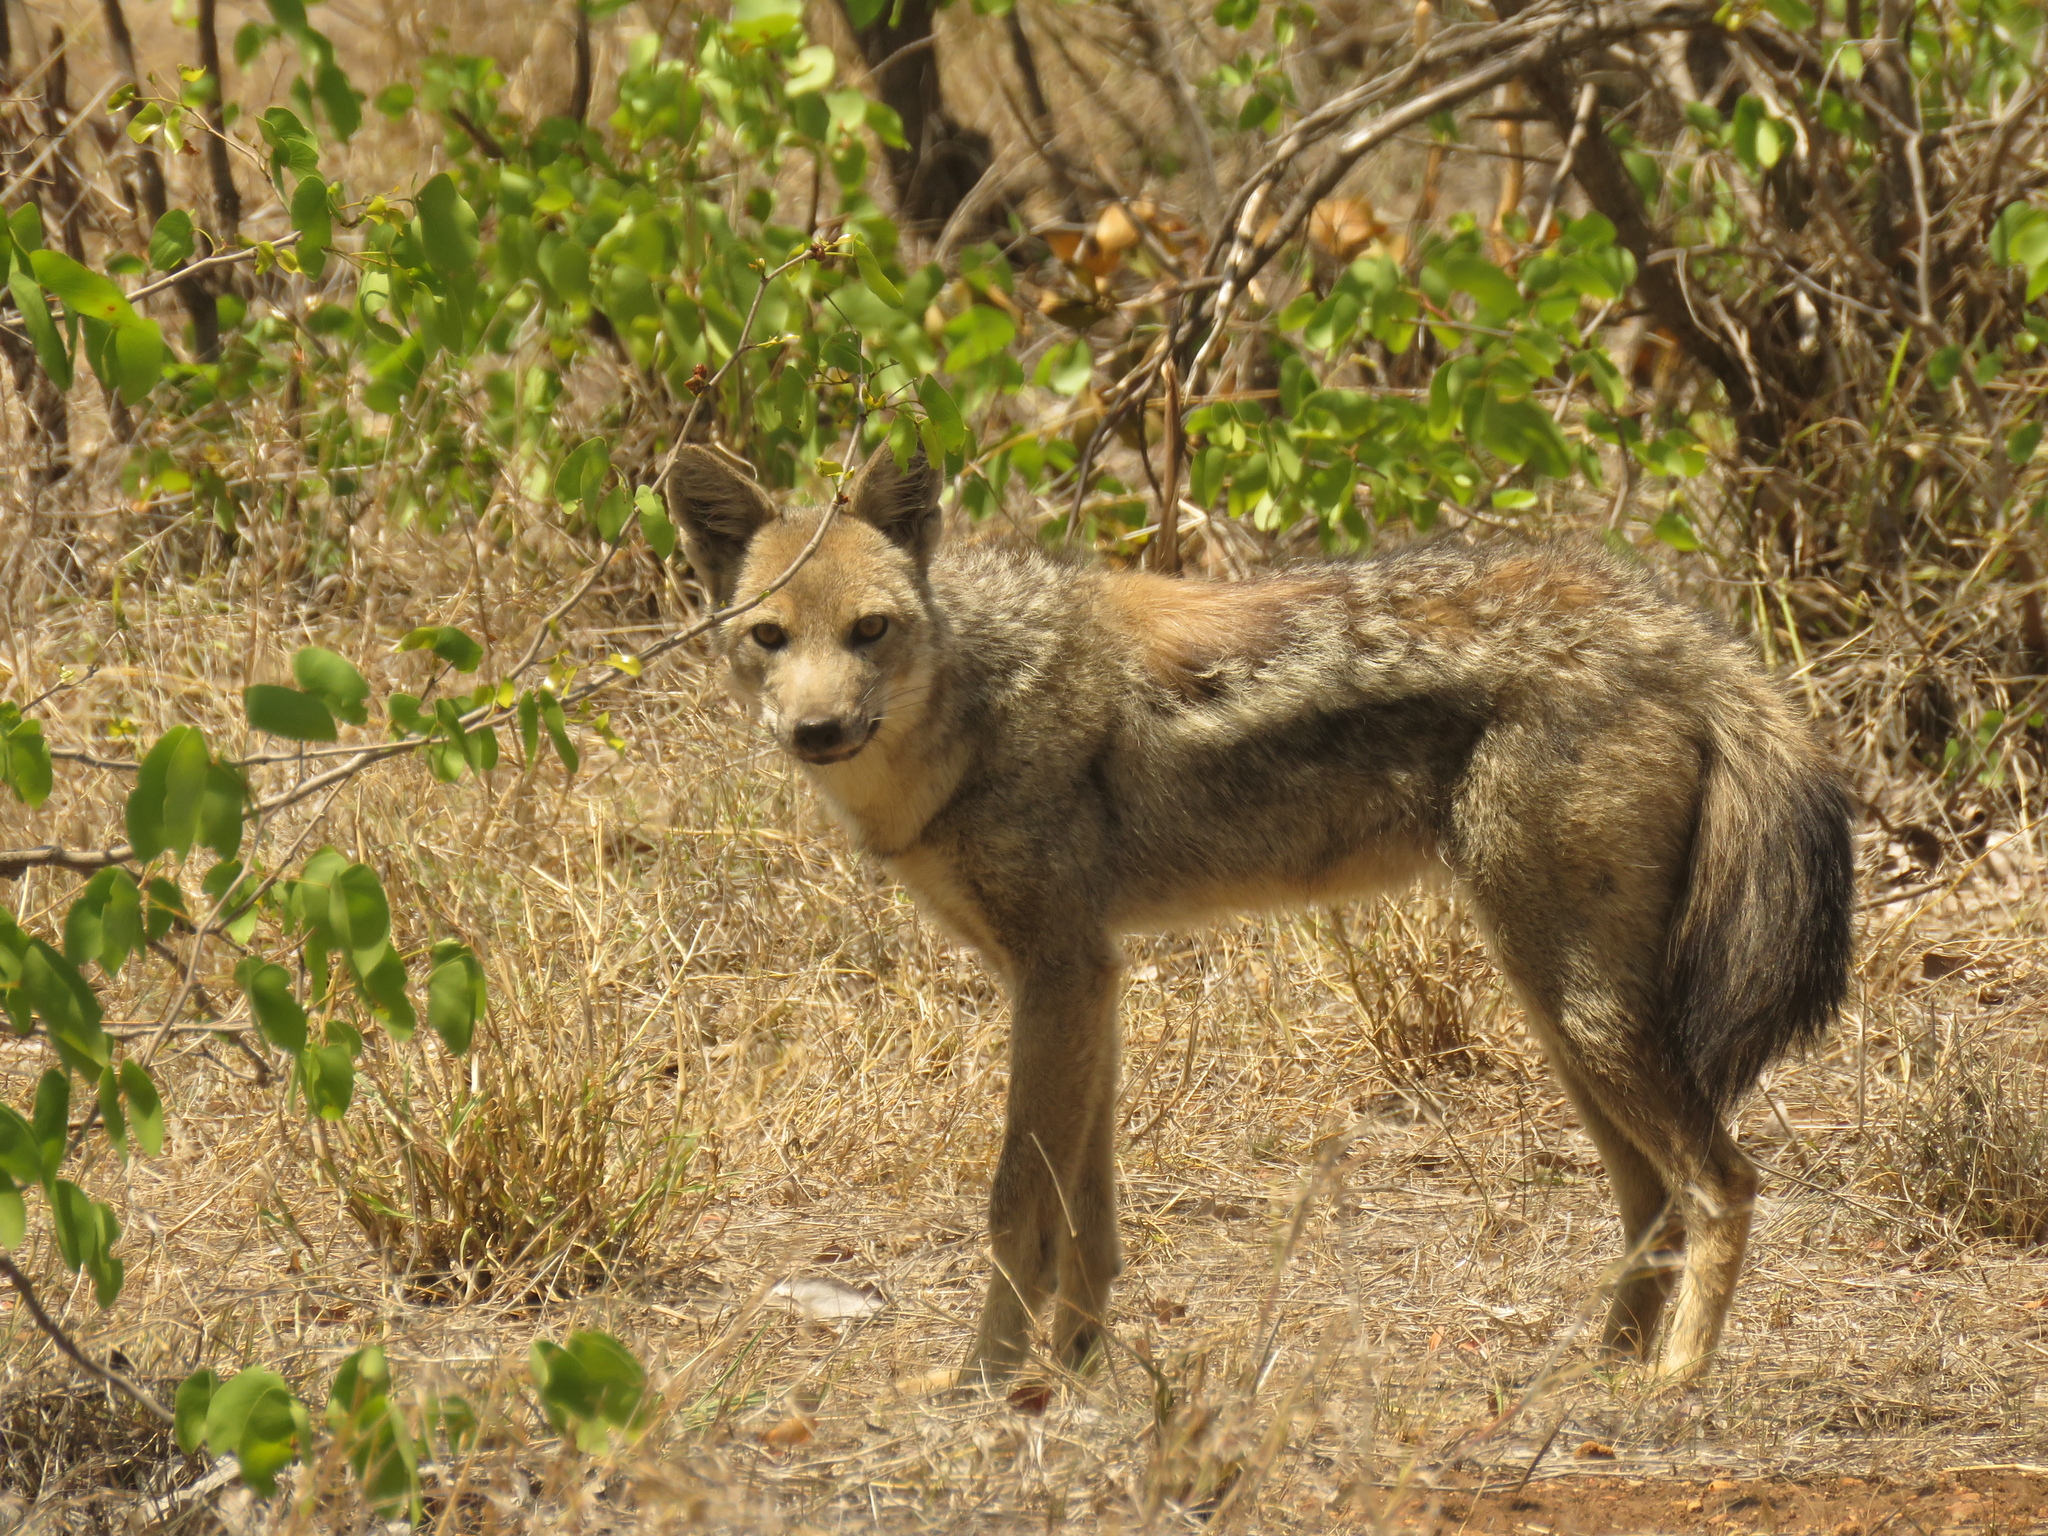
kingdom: Animalia
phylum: Chordata
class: Mammalia
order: Carnivora
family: Canidae
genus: Lupulella
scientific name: Lupulella
